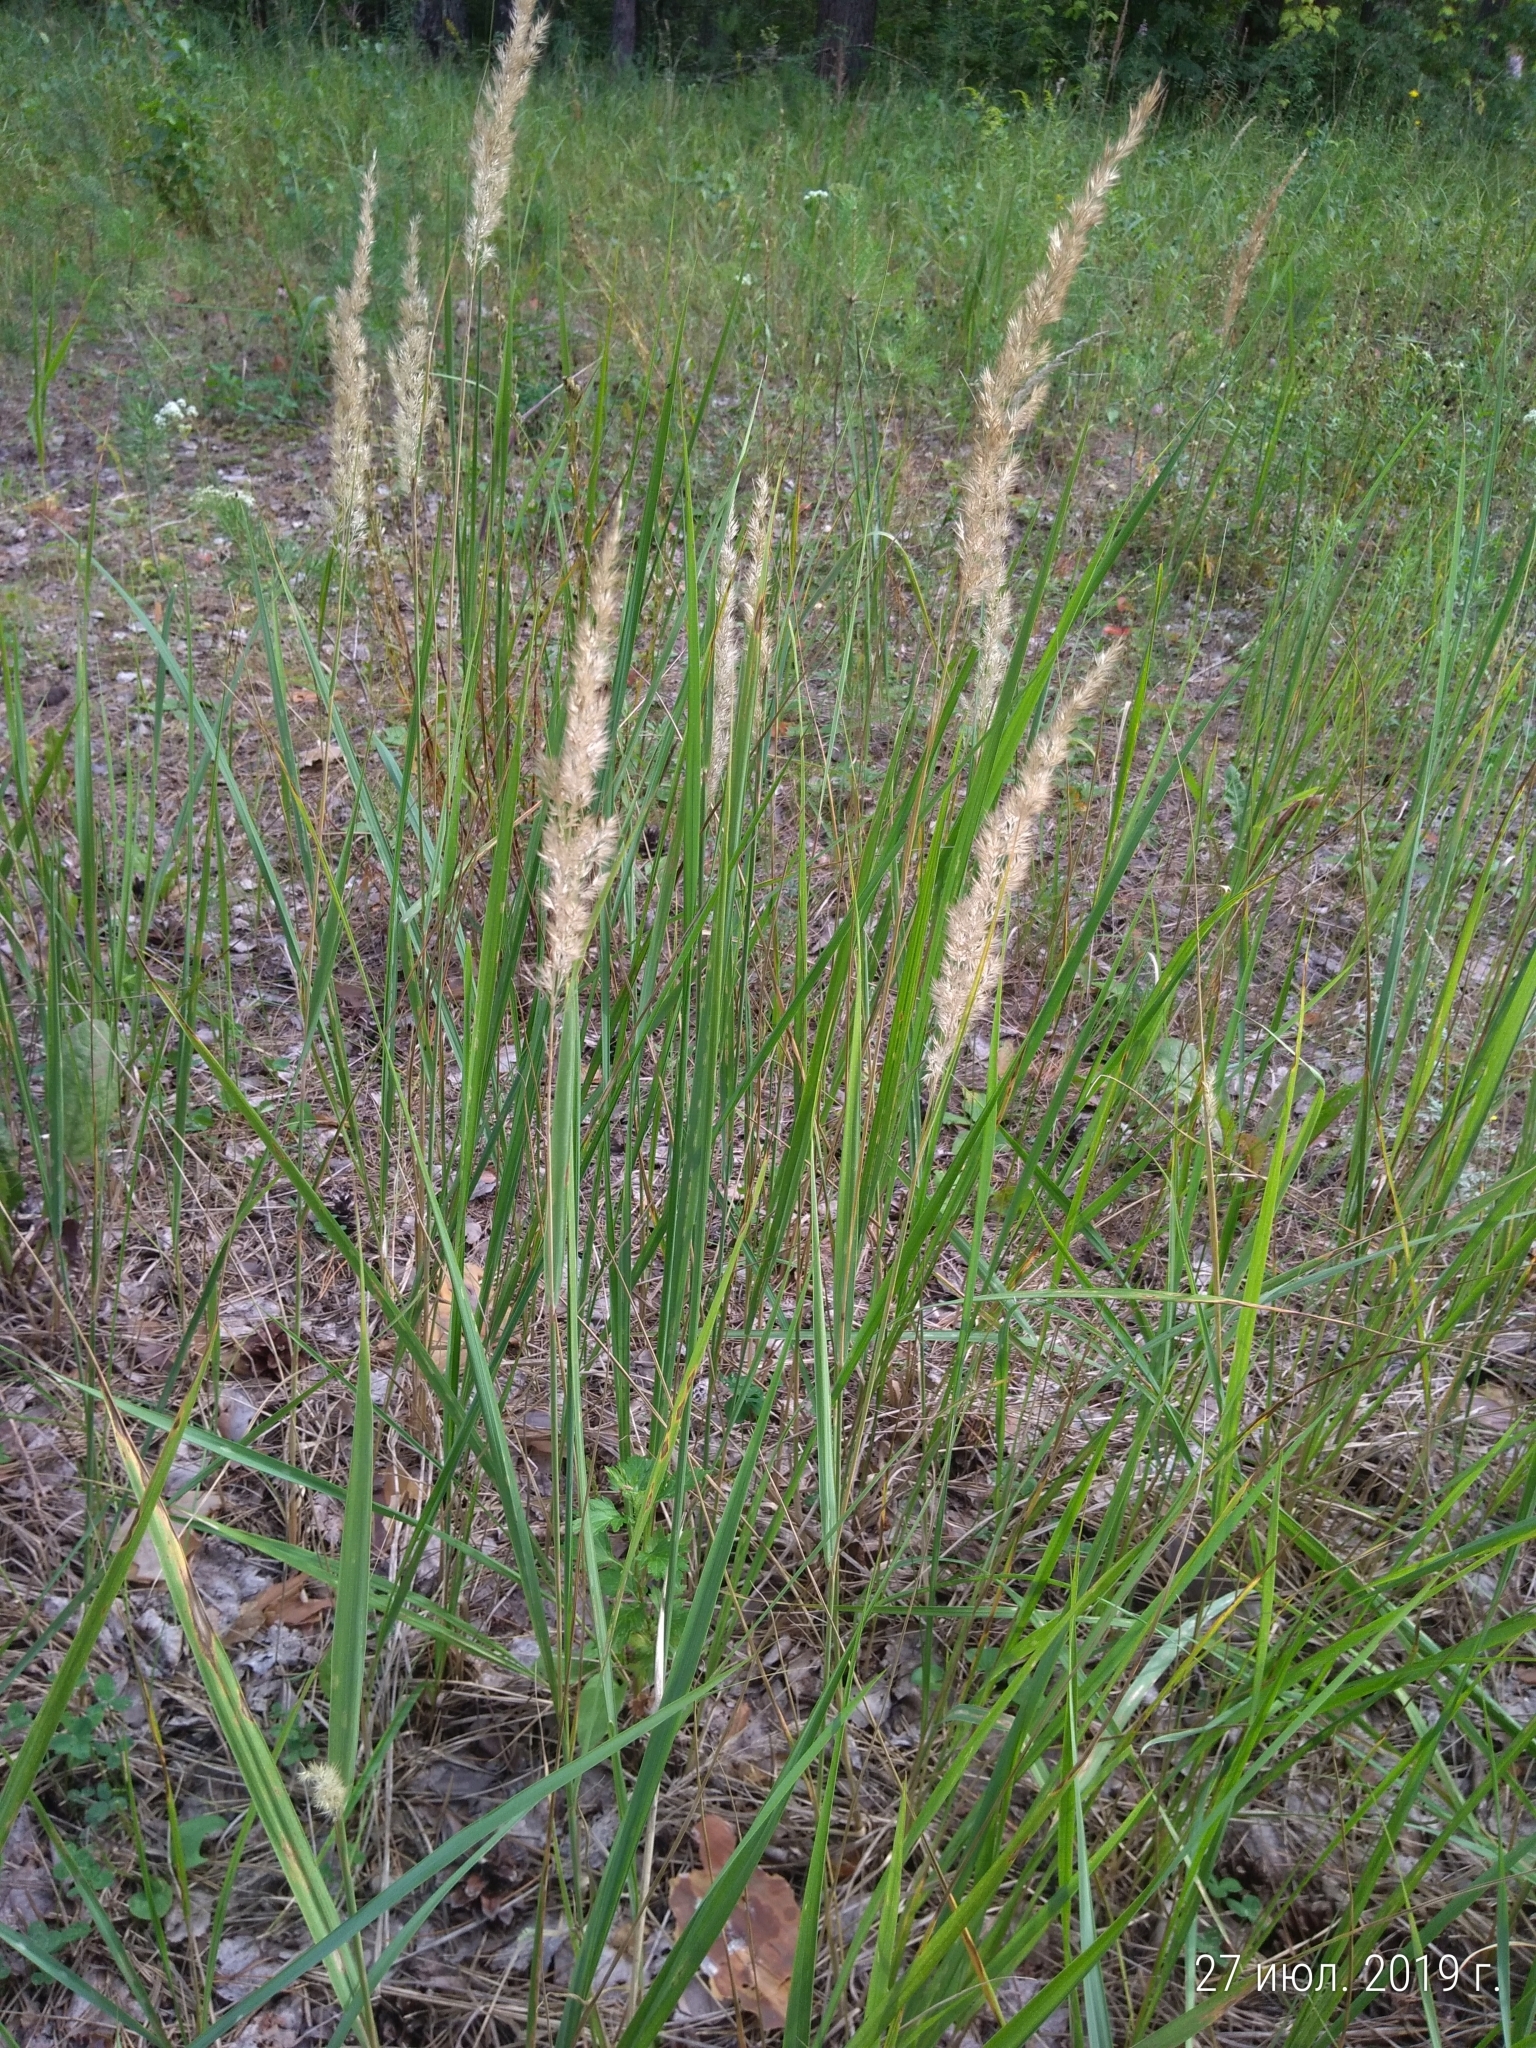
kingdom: Plantae
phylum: Tracheophyta
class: Liliopsida
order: Poales
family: Poaceae
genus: Calamagrostis
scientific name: Calamagrostis epigejos
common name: Wood small-reed
